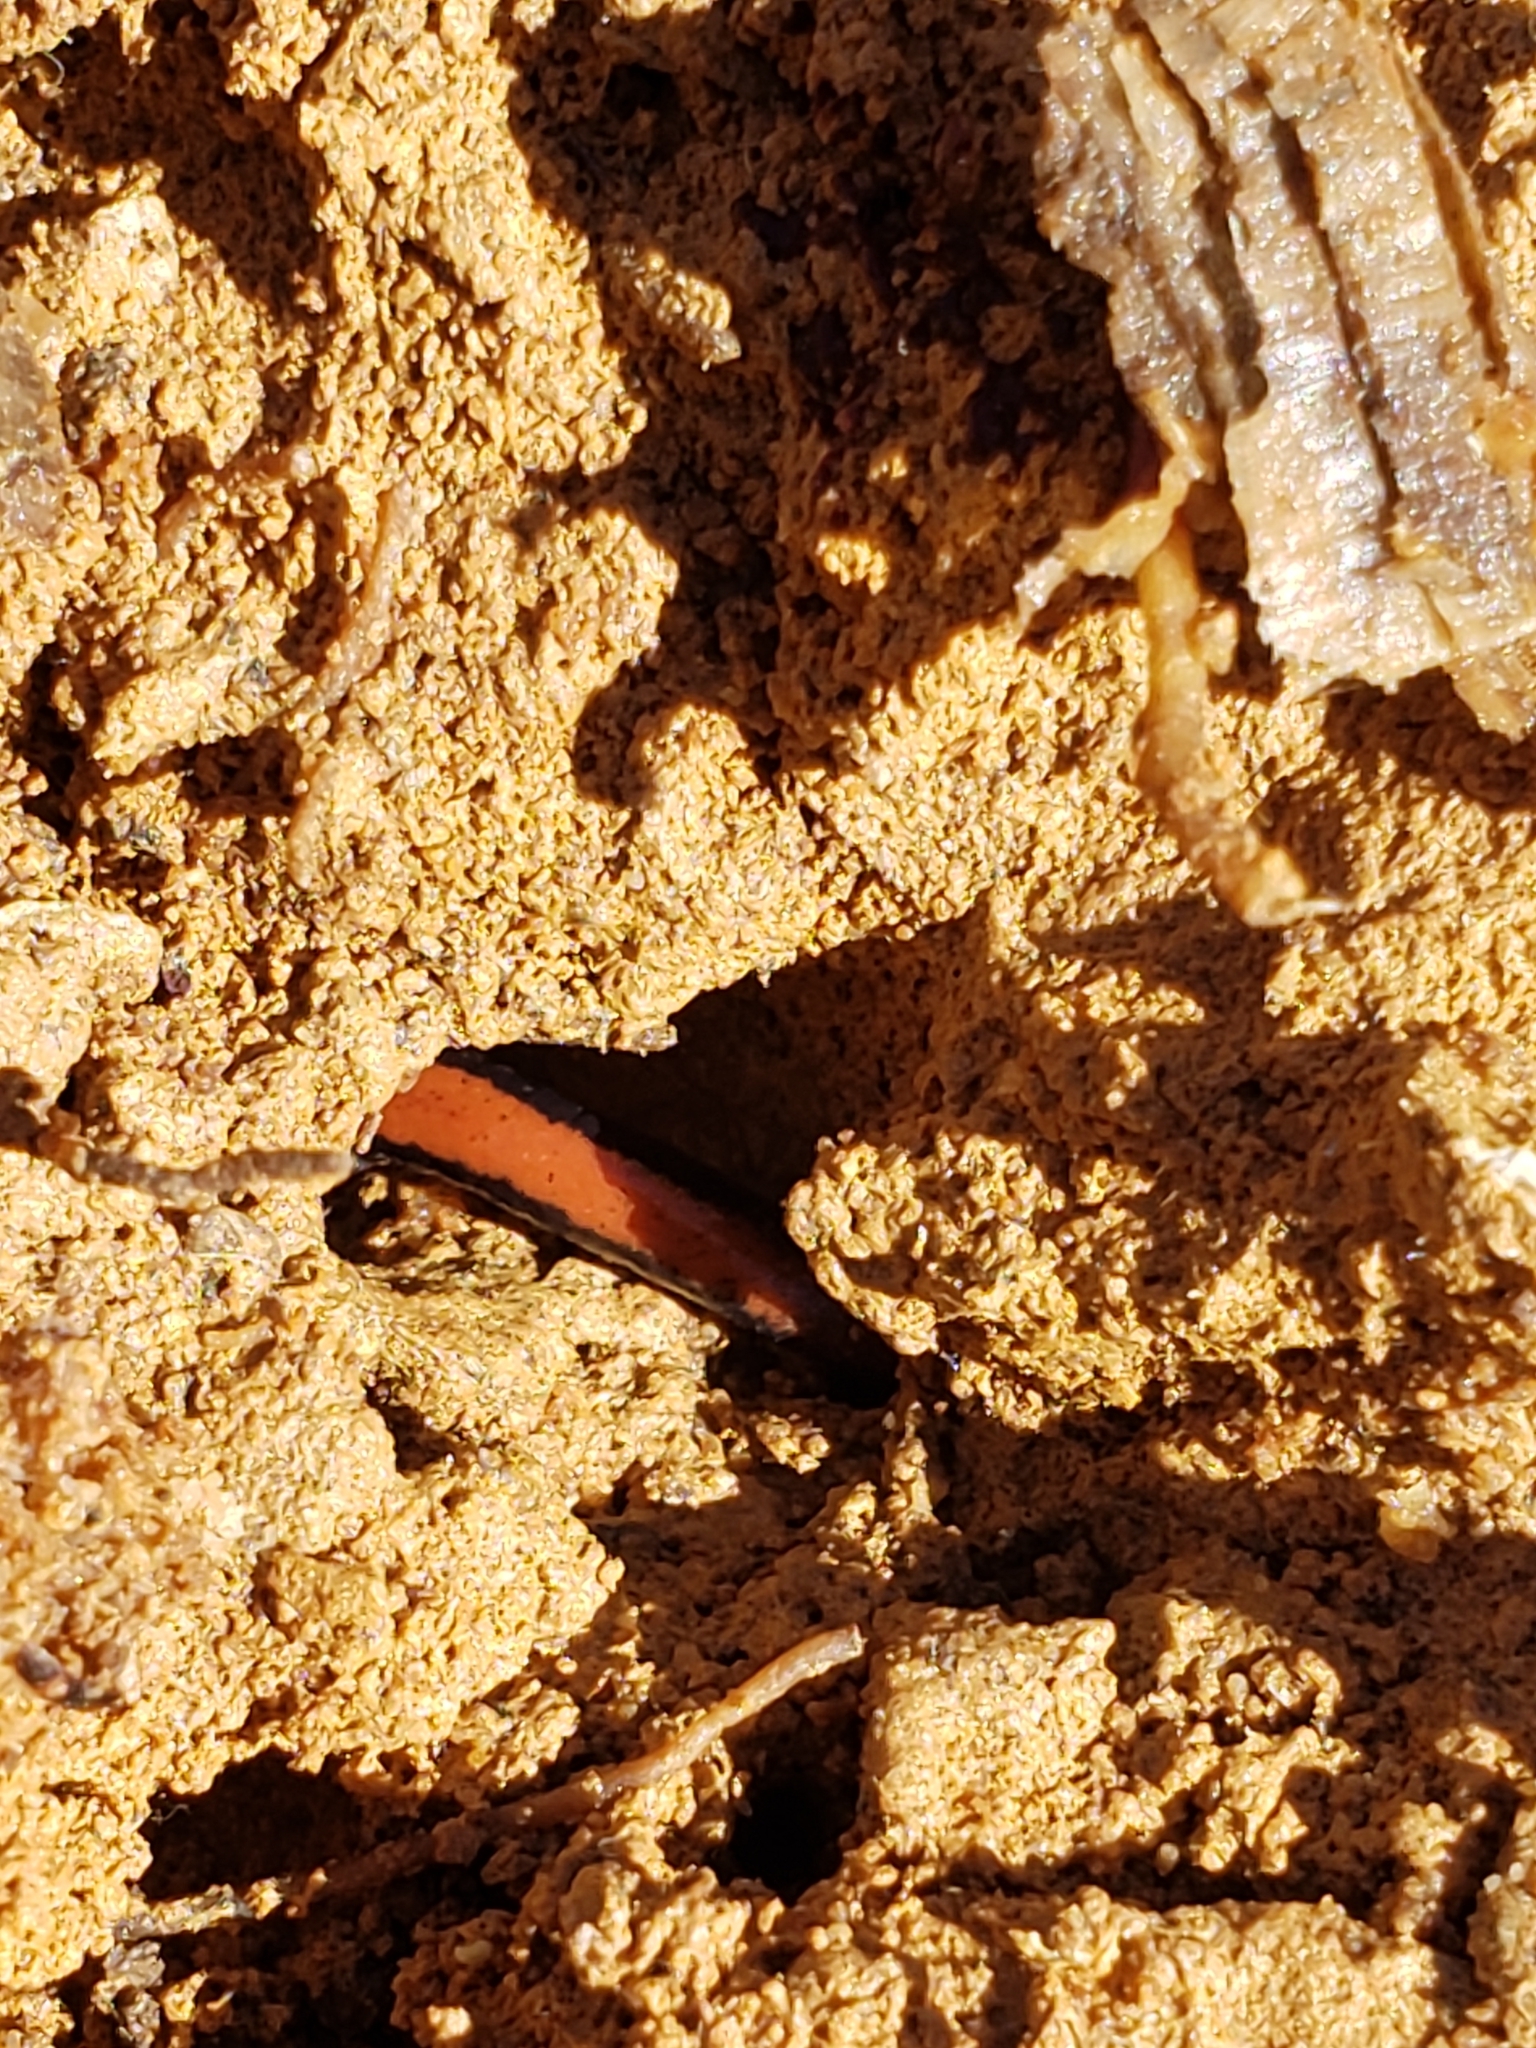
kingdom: Animalia
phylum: Chordata
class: Amphibia
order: Caudata
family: Plethodontidae
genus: Plethodon
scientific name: Plethodon cinereus
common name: Redback salamander
